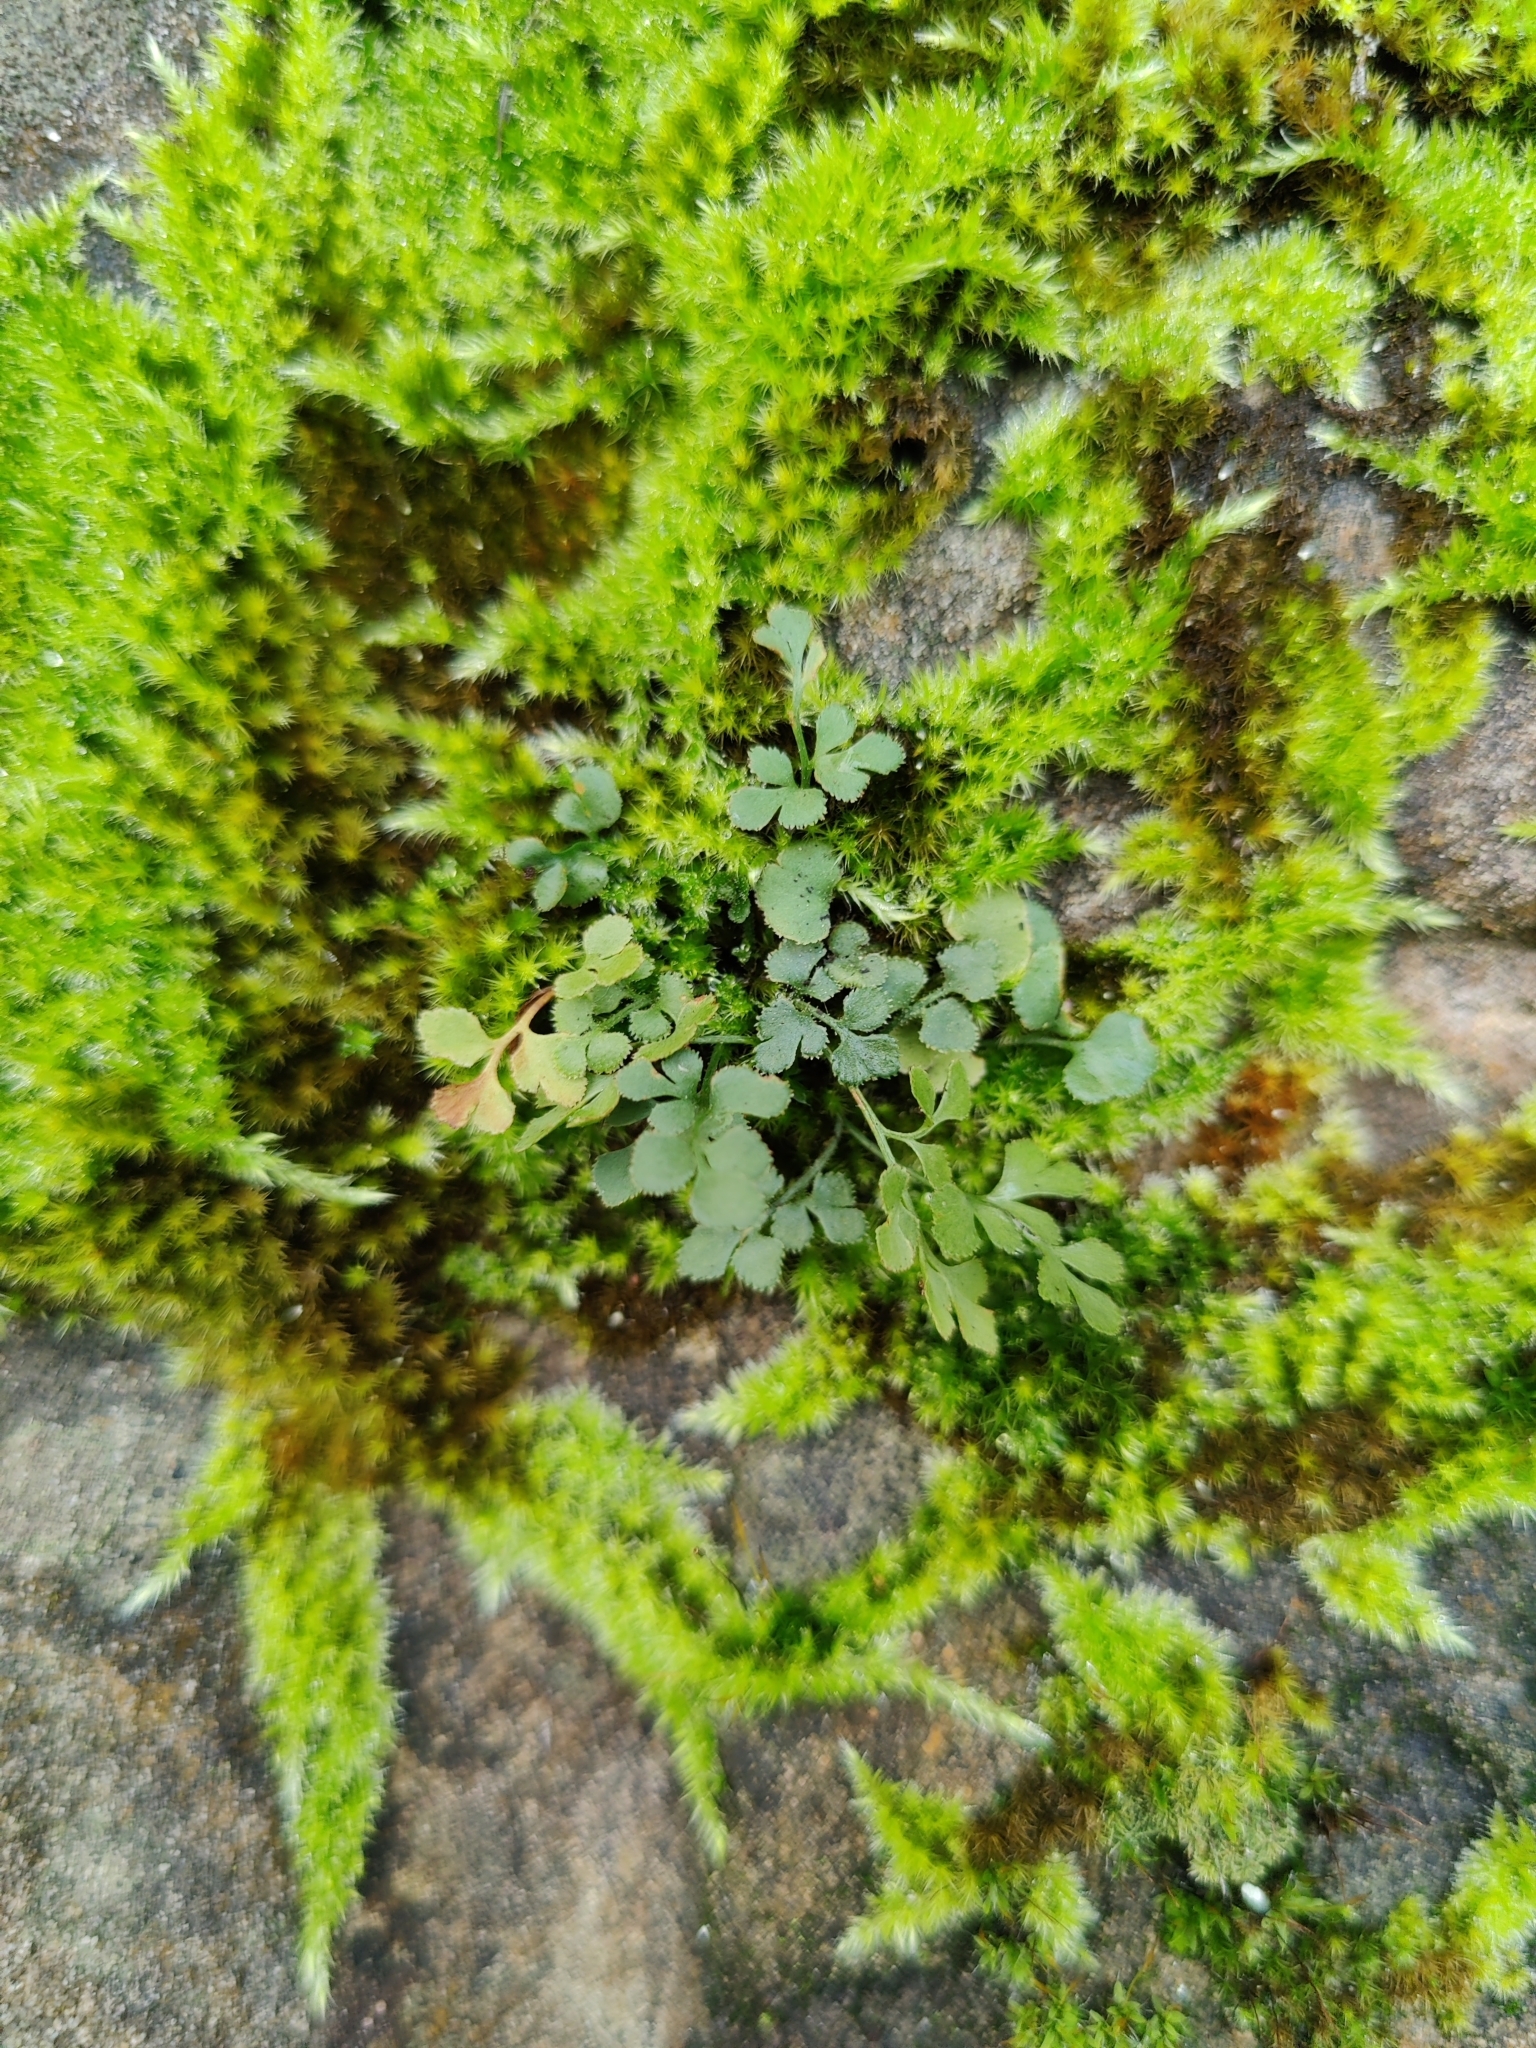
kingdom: Plantae
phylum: Tracheophyta
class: Polypodiopsida
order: Polypodiales
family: Aspleniaceae
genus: Asplenium
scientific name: Asplenium ruta-muraria
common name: Wall-rue
